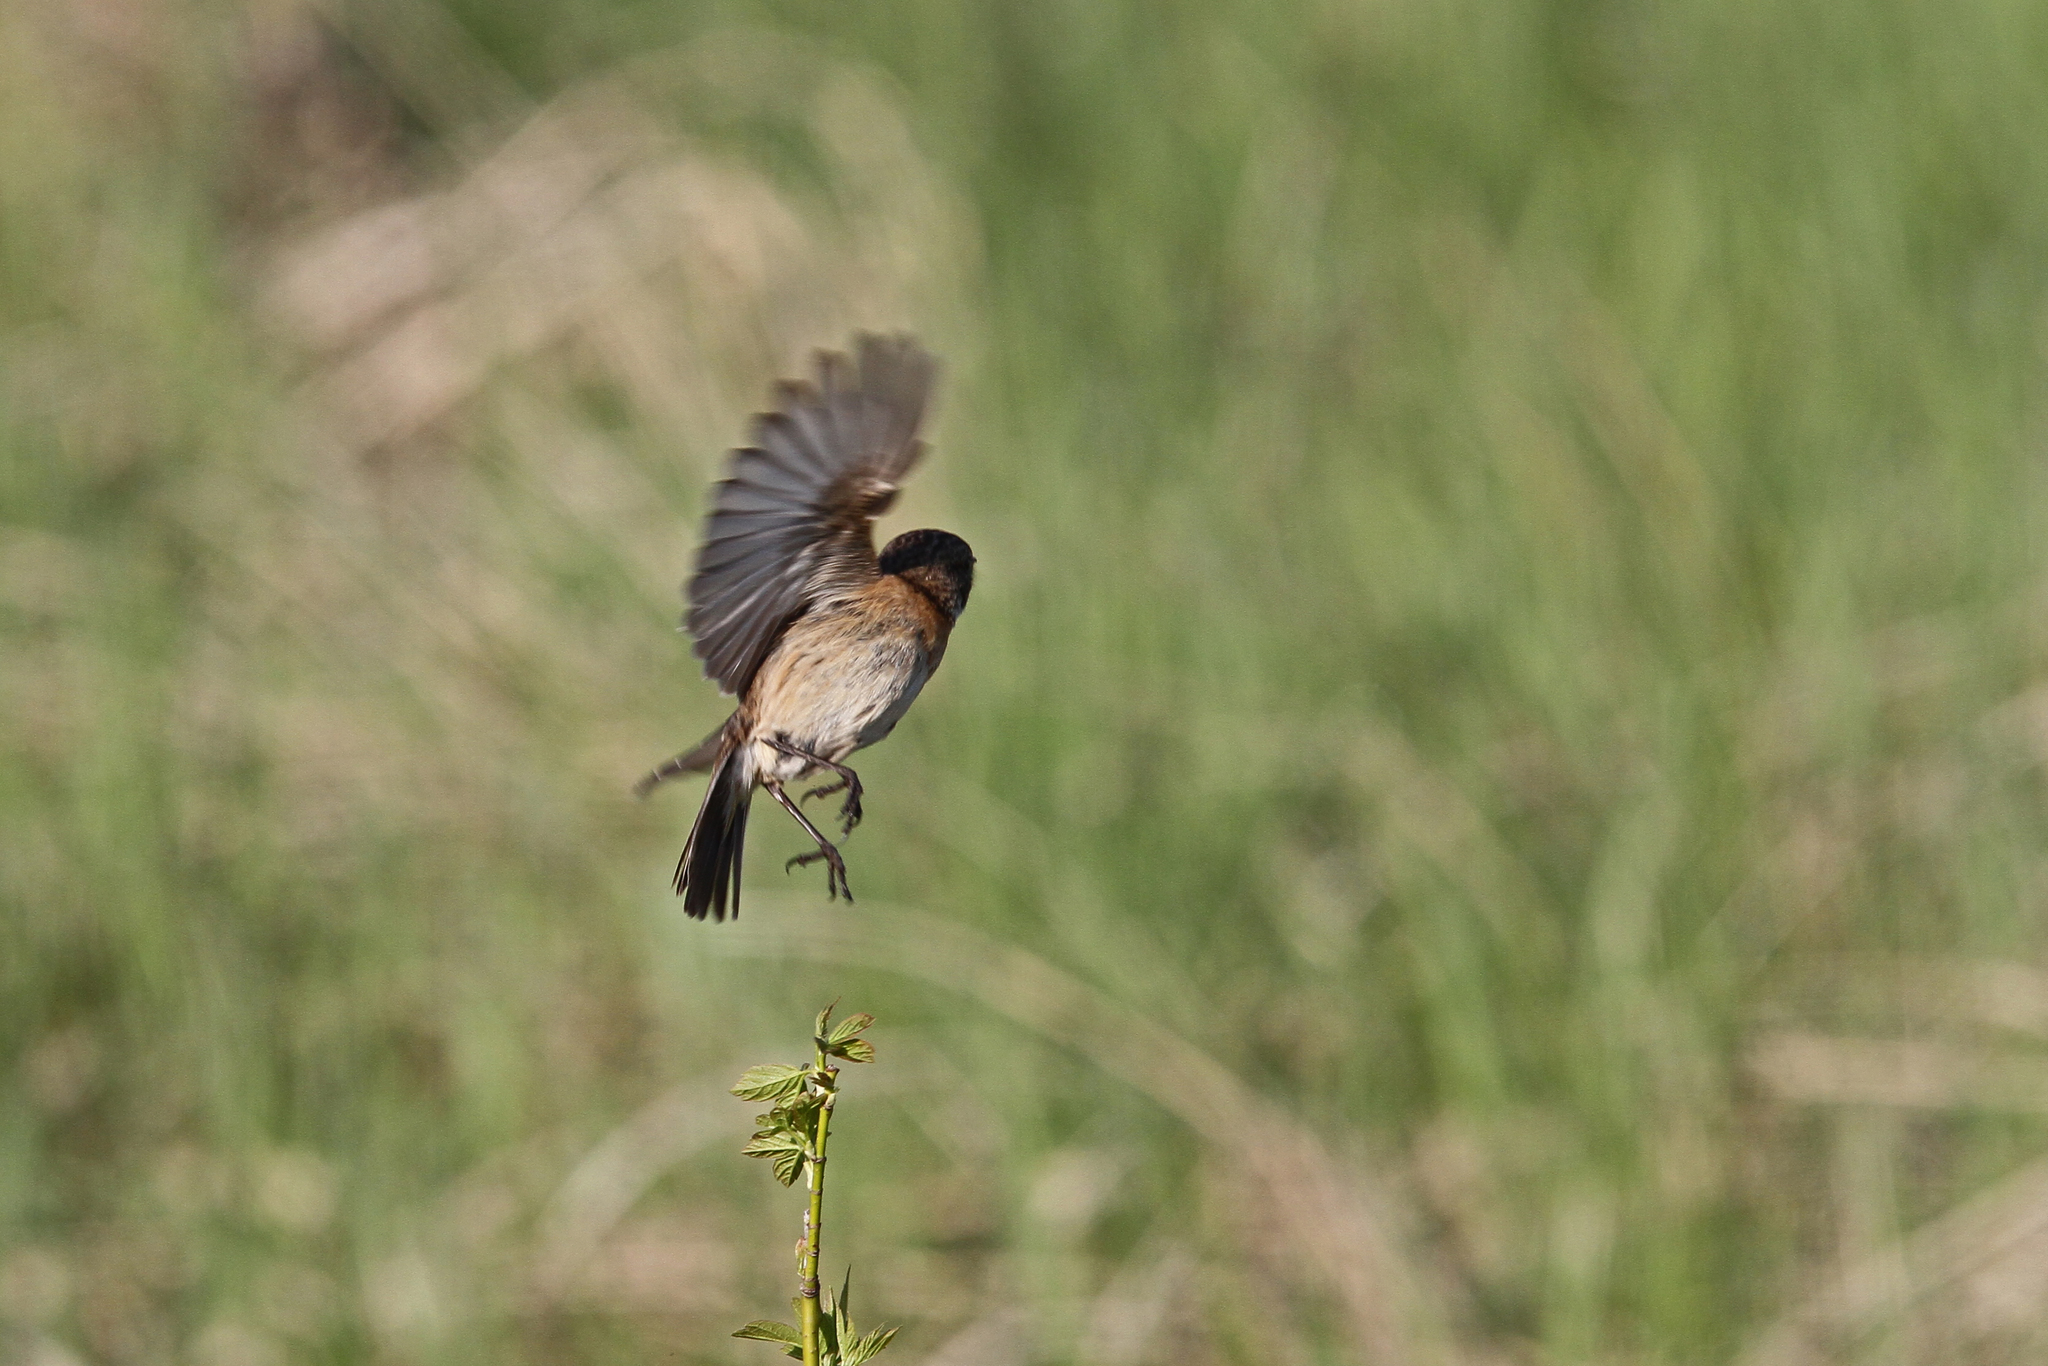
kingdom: Animalia
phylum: Chordata
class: Aves
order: Passeriformes
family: Muscicapidae
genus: Saxicola
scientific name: Saxicola rubicola
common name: European stonechat
